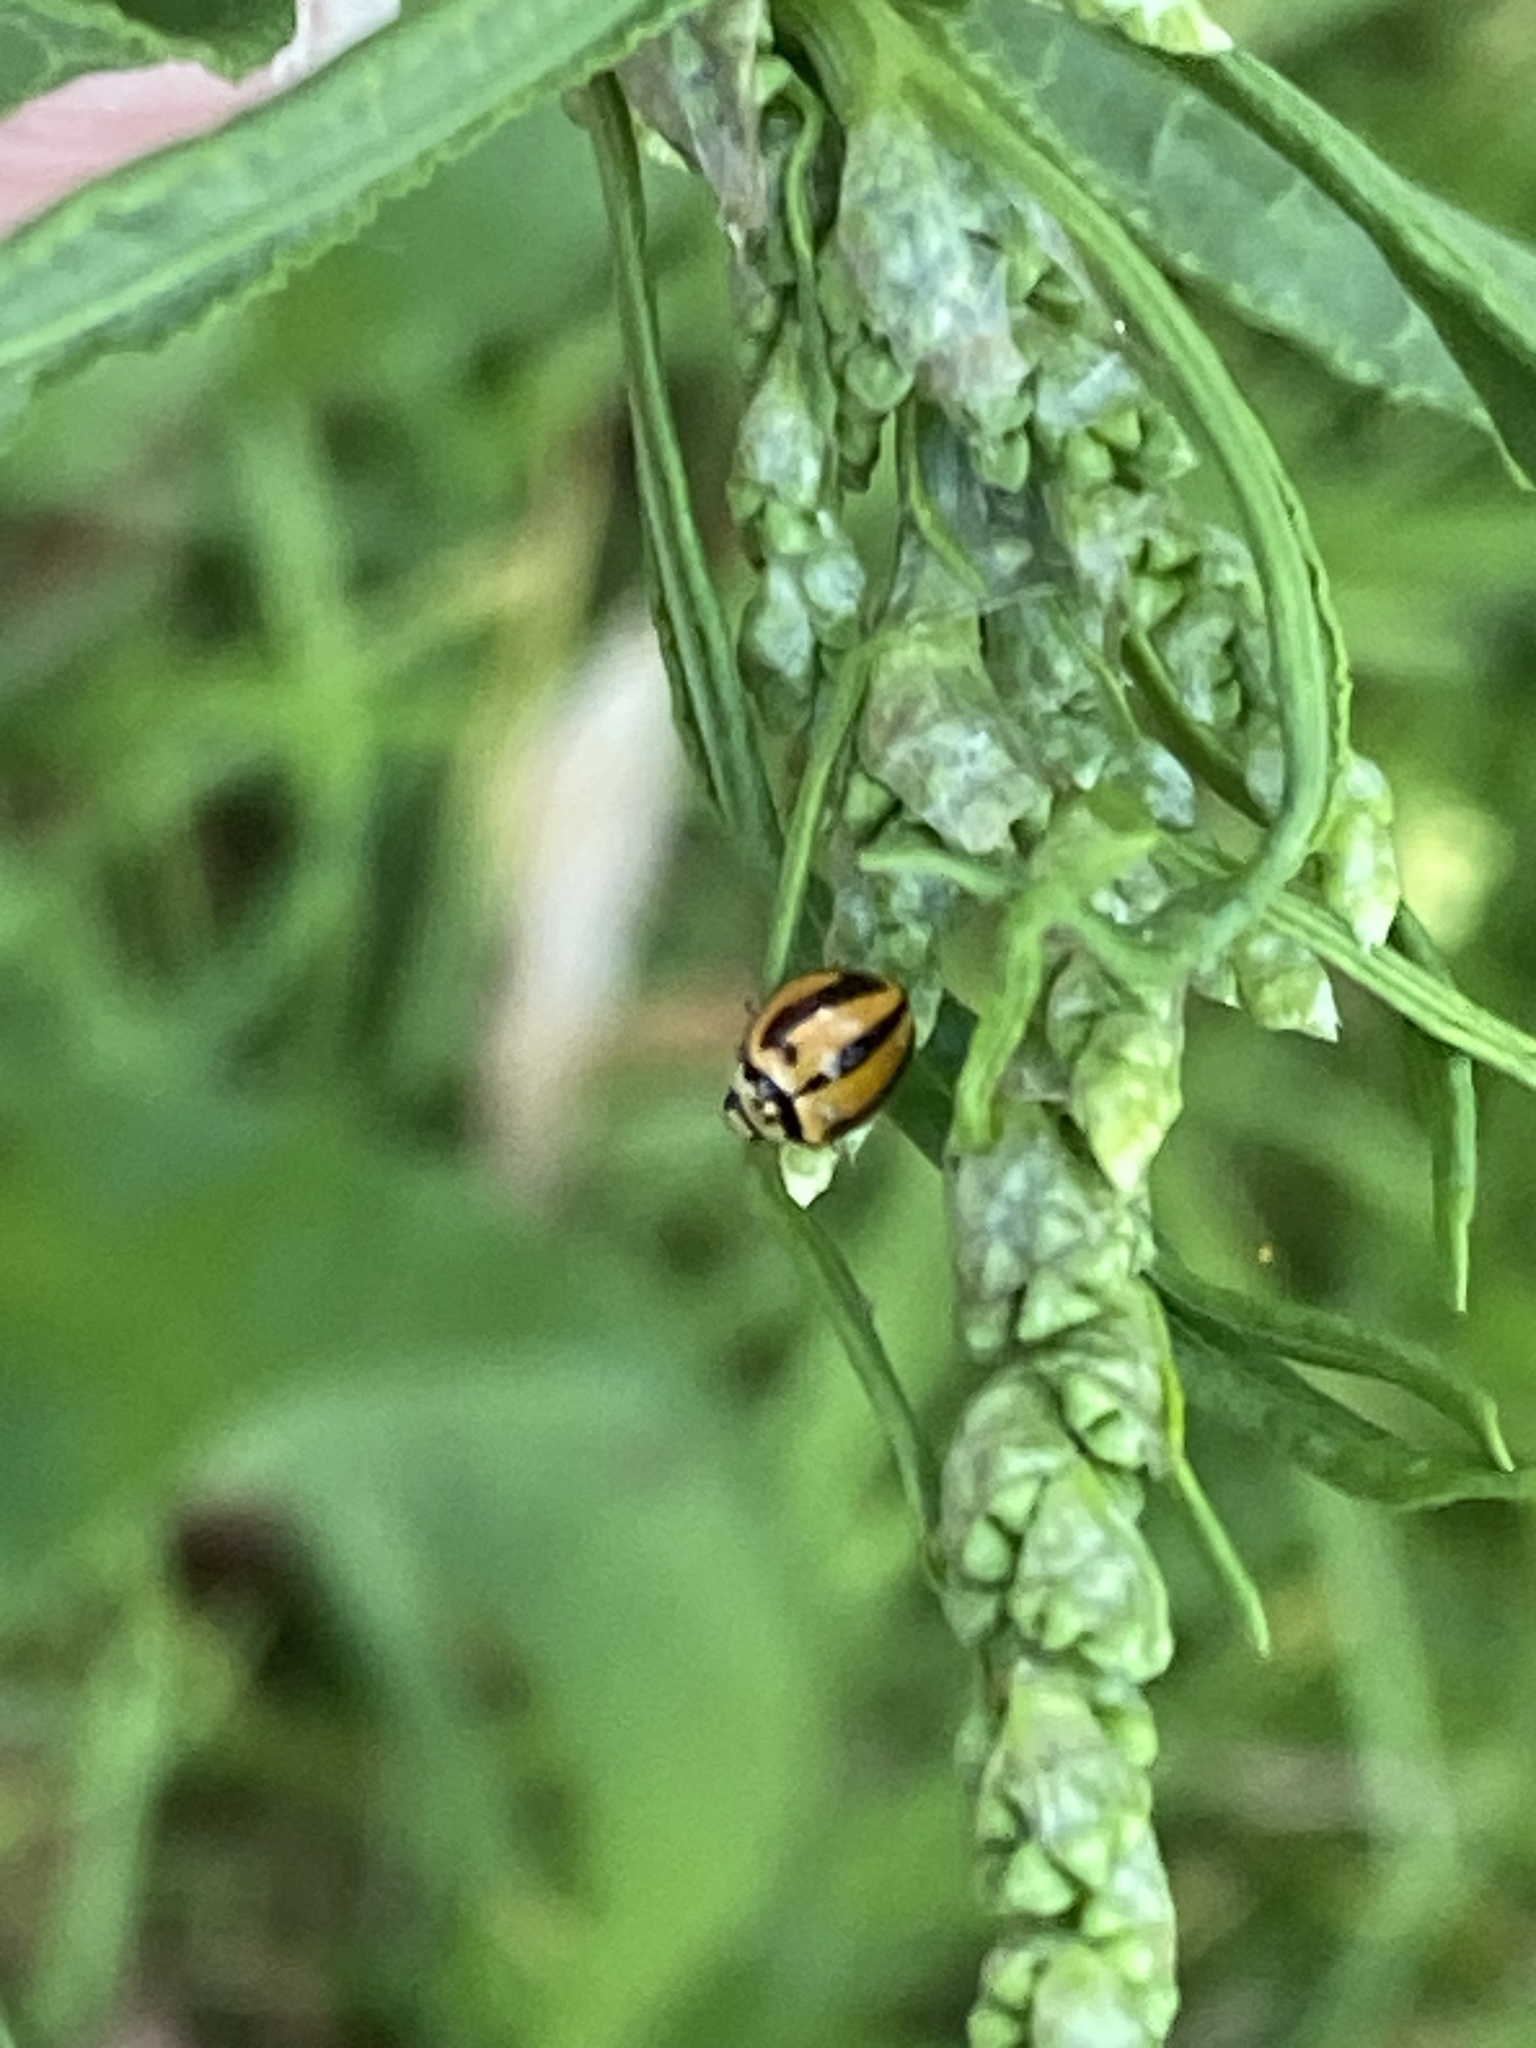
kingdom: Animalia
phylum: Arthropoda
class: Insecta
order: Coleoptera
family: Coccinellidae
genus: Micraspis
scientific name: Micraspis frenata
